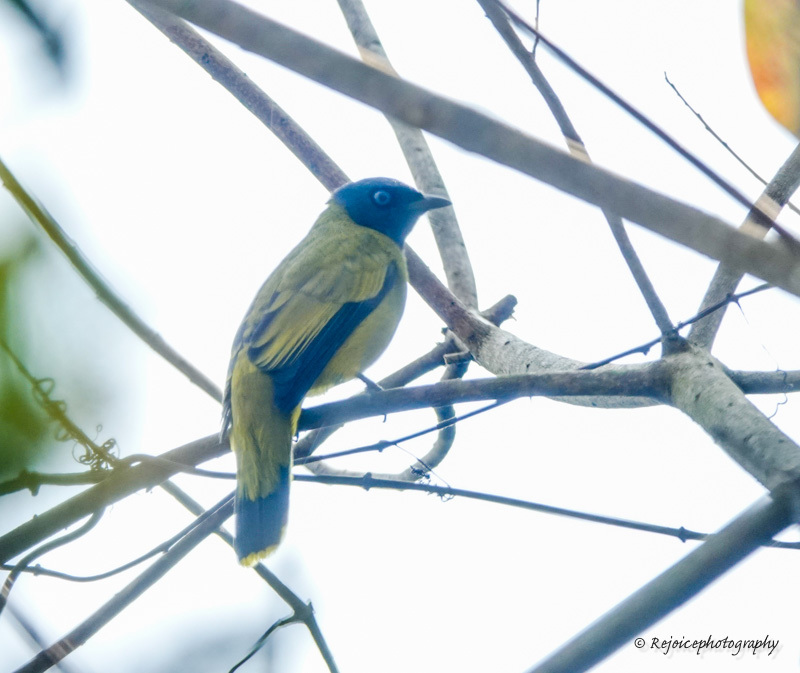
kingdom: Animalia
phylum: Chordata
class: Aves
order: Passeriformes
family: Pycnonotidae
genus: Microtarsus
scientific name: Microtarsus
